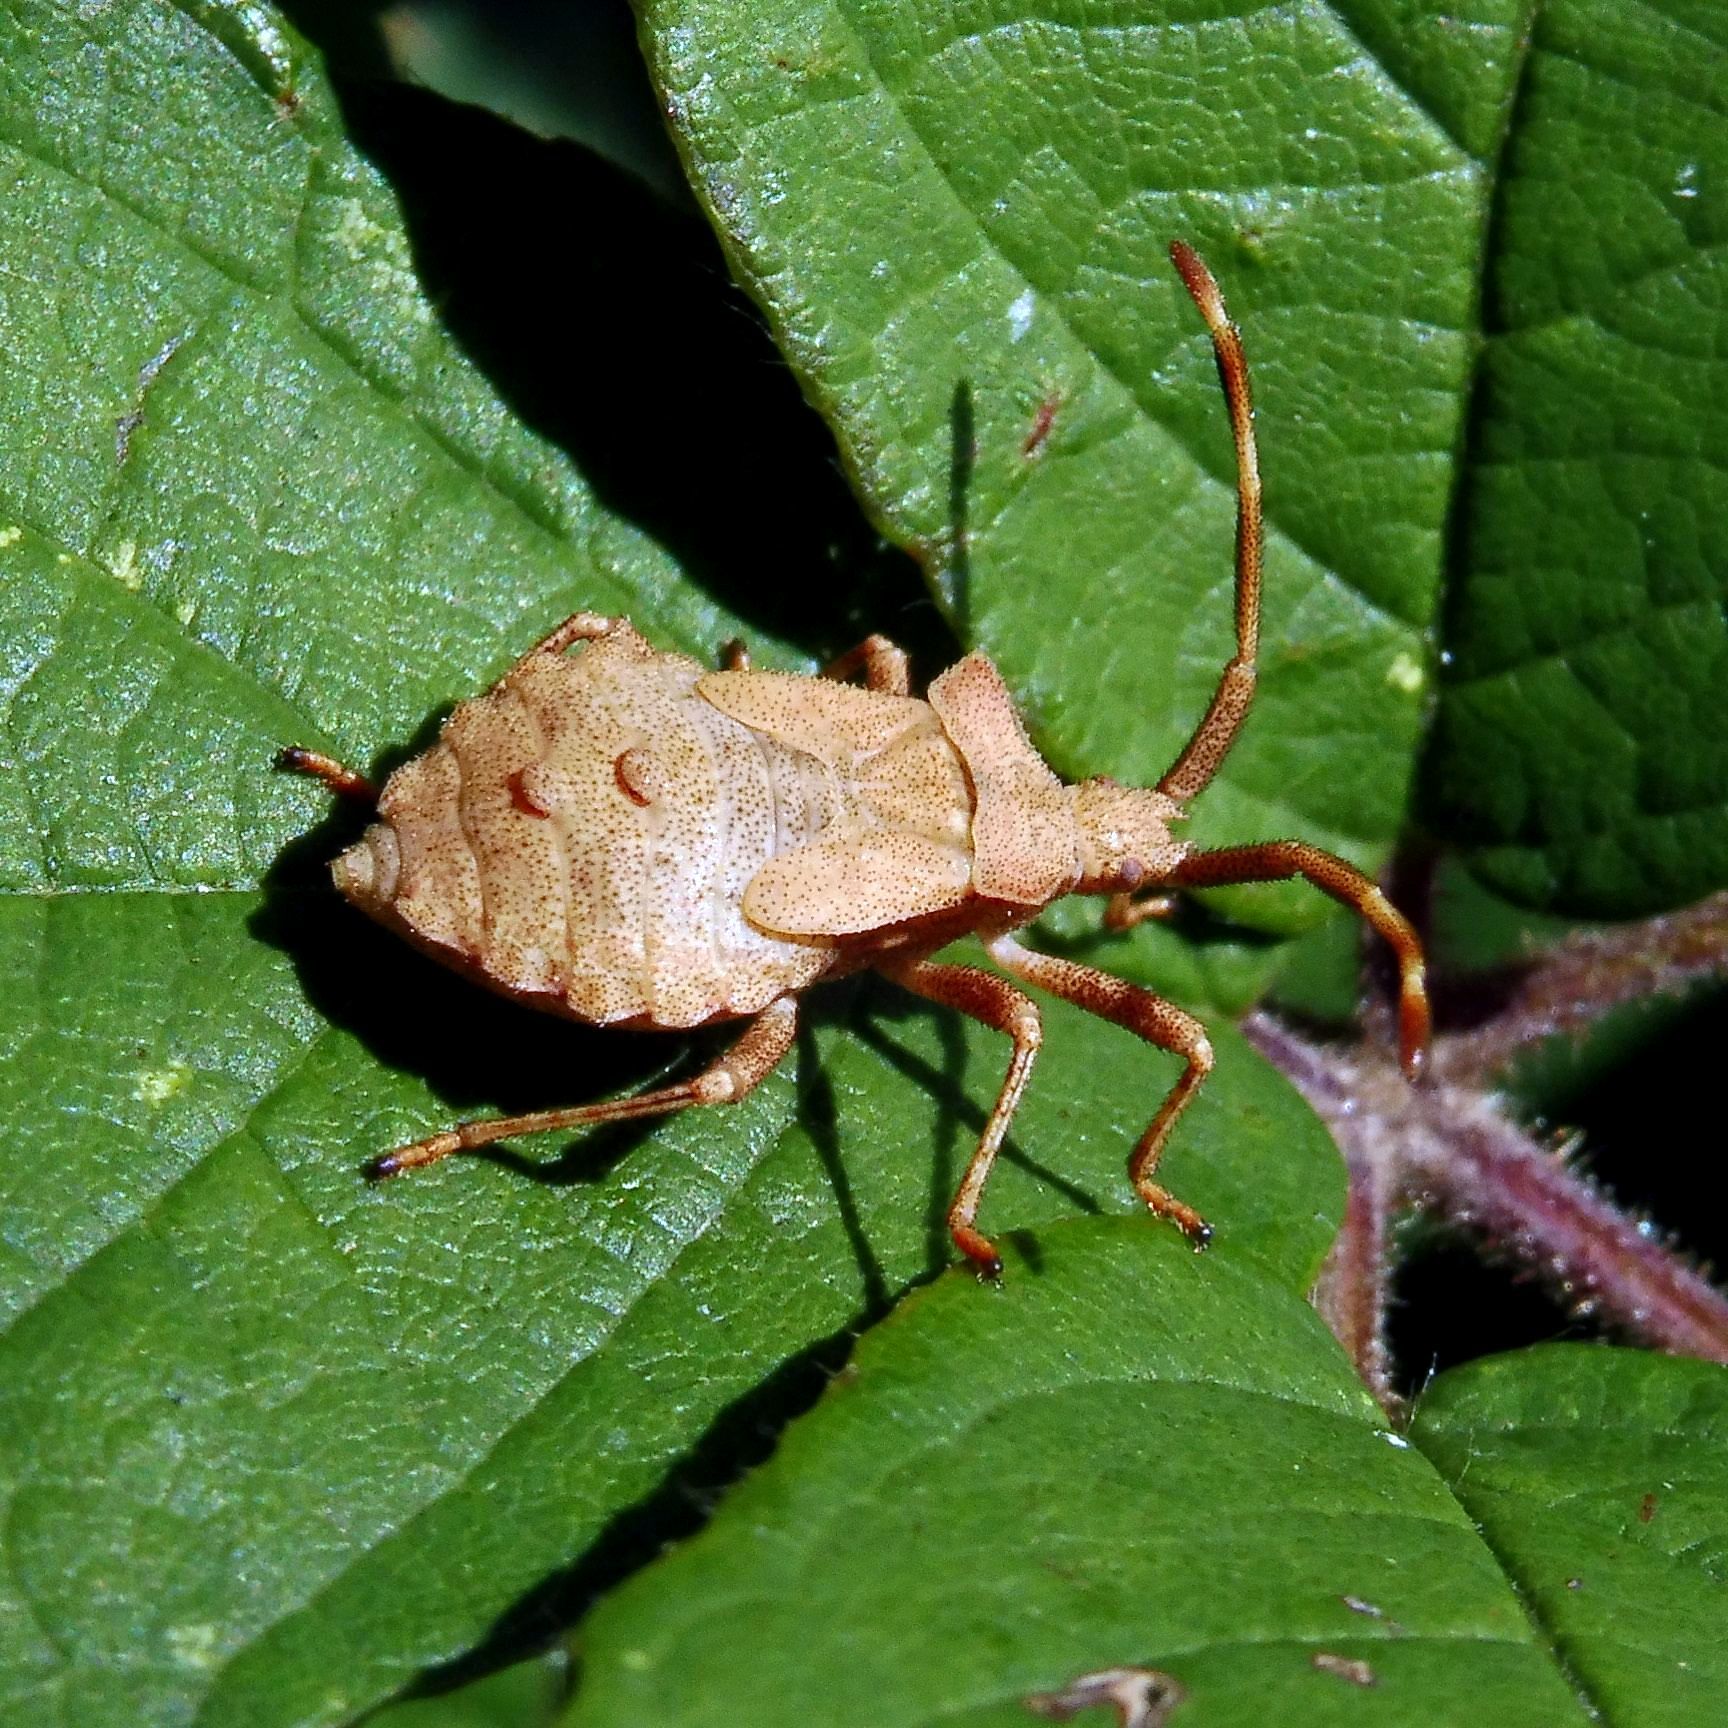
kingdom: Animalia
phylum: Arthropoda
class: Insecta
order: Hemiptera
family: Coreidae
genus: Coreus
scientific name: Coreus marginatus
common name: Dock bug
